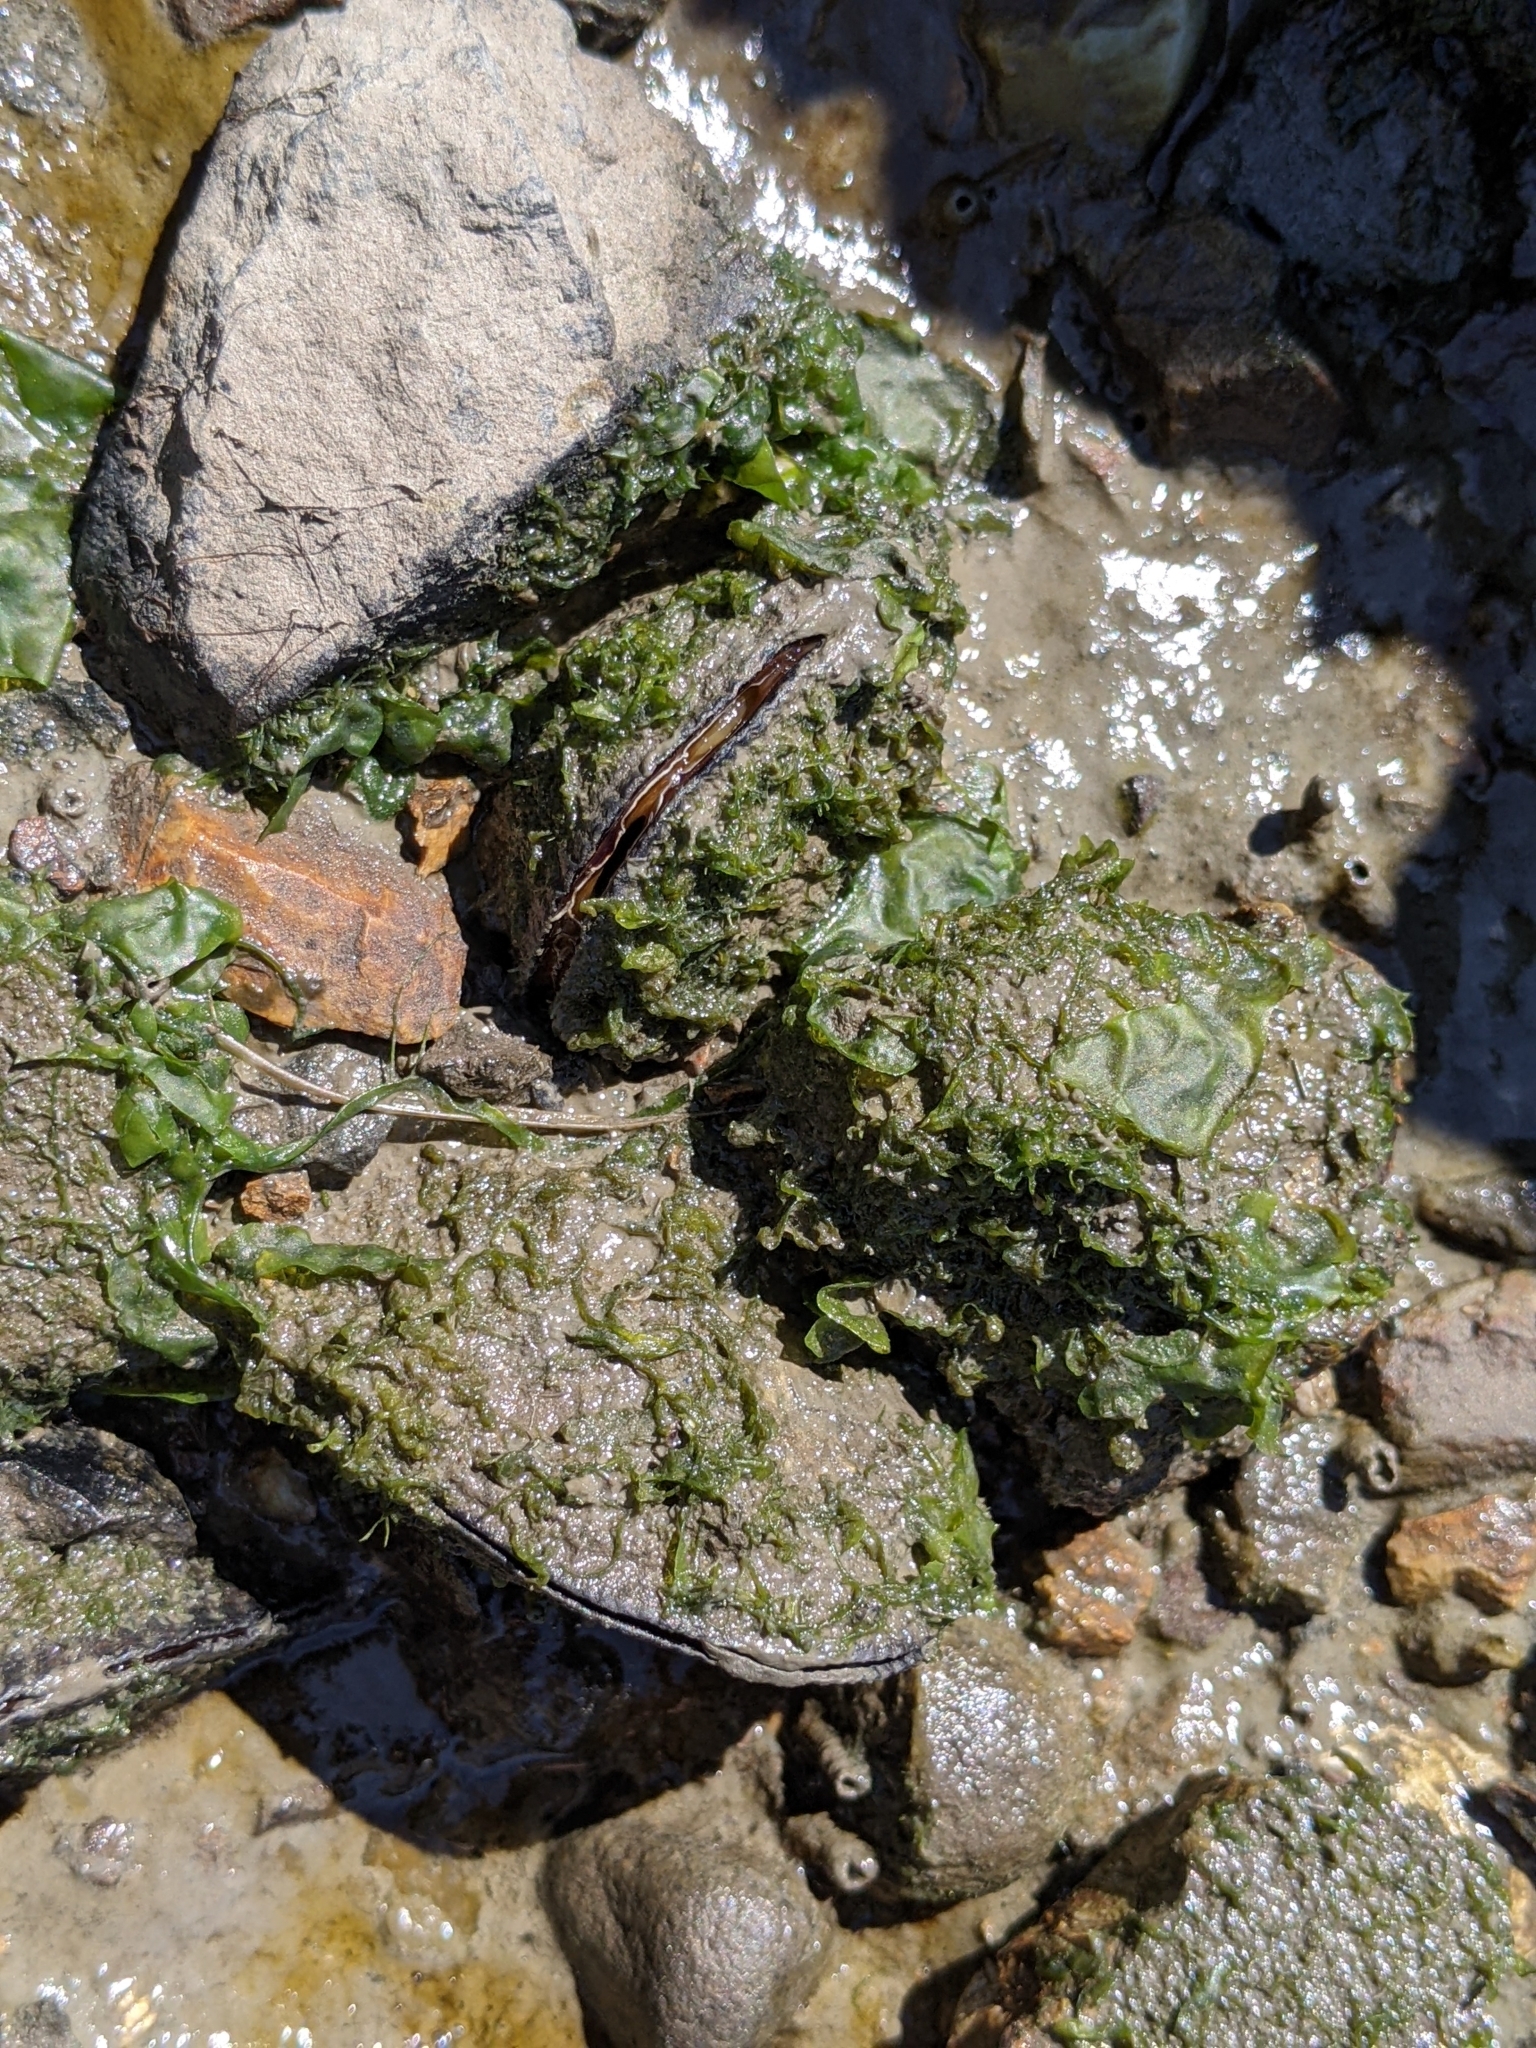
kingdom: Animalia
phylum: Mollusca
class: Bivalvia
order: Mytilida
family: Mytilidae
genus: Geukensia
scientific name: Geukensia demissa
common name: Ribbed mussel
